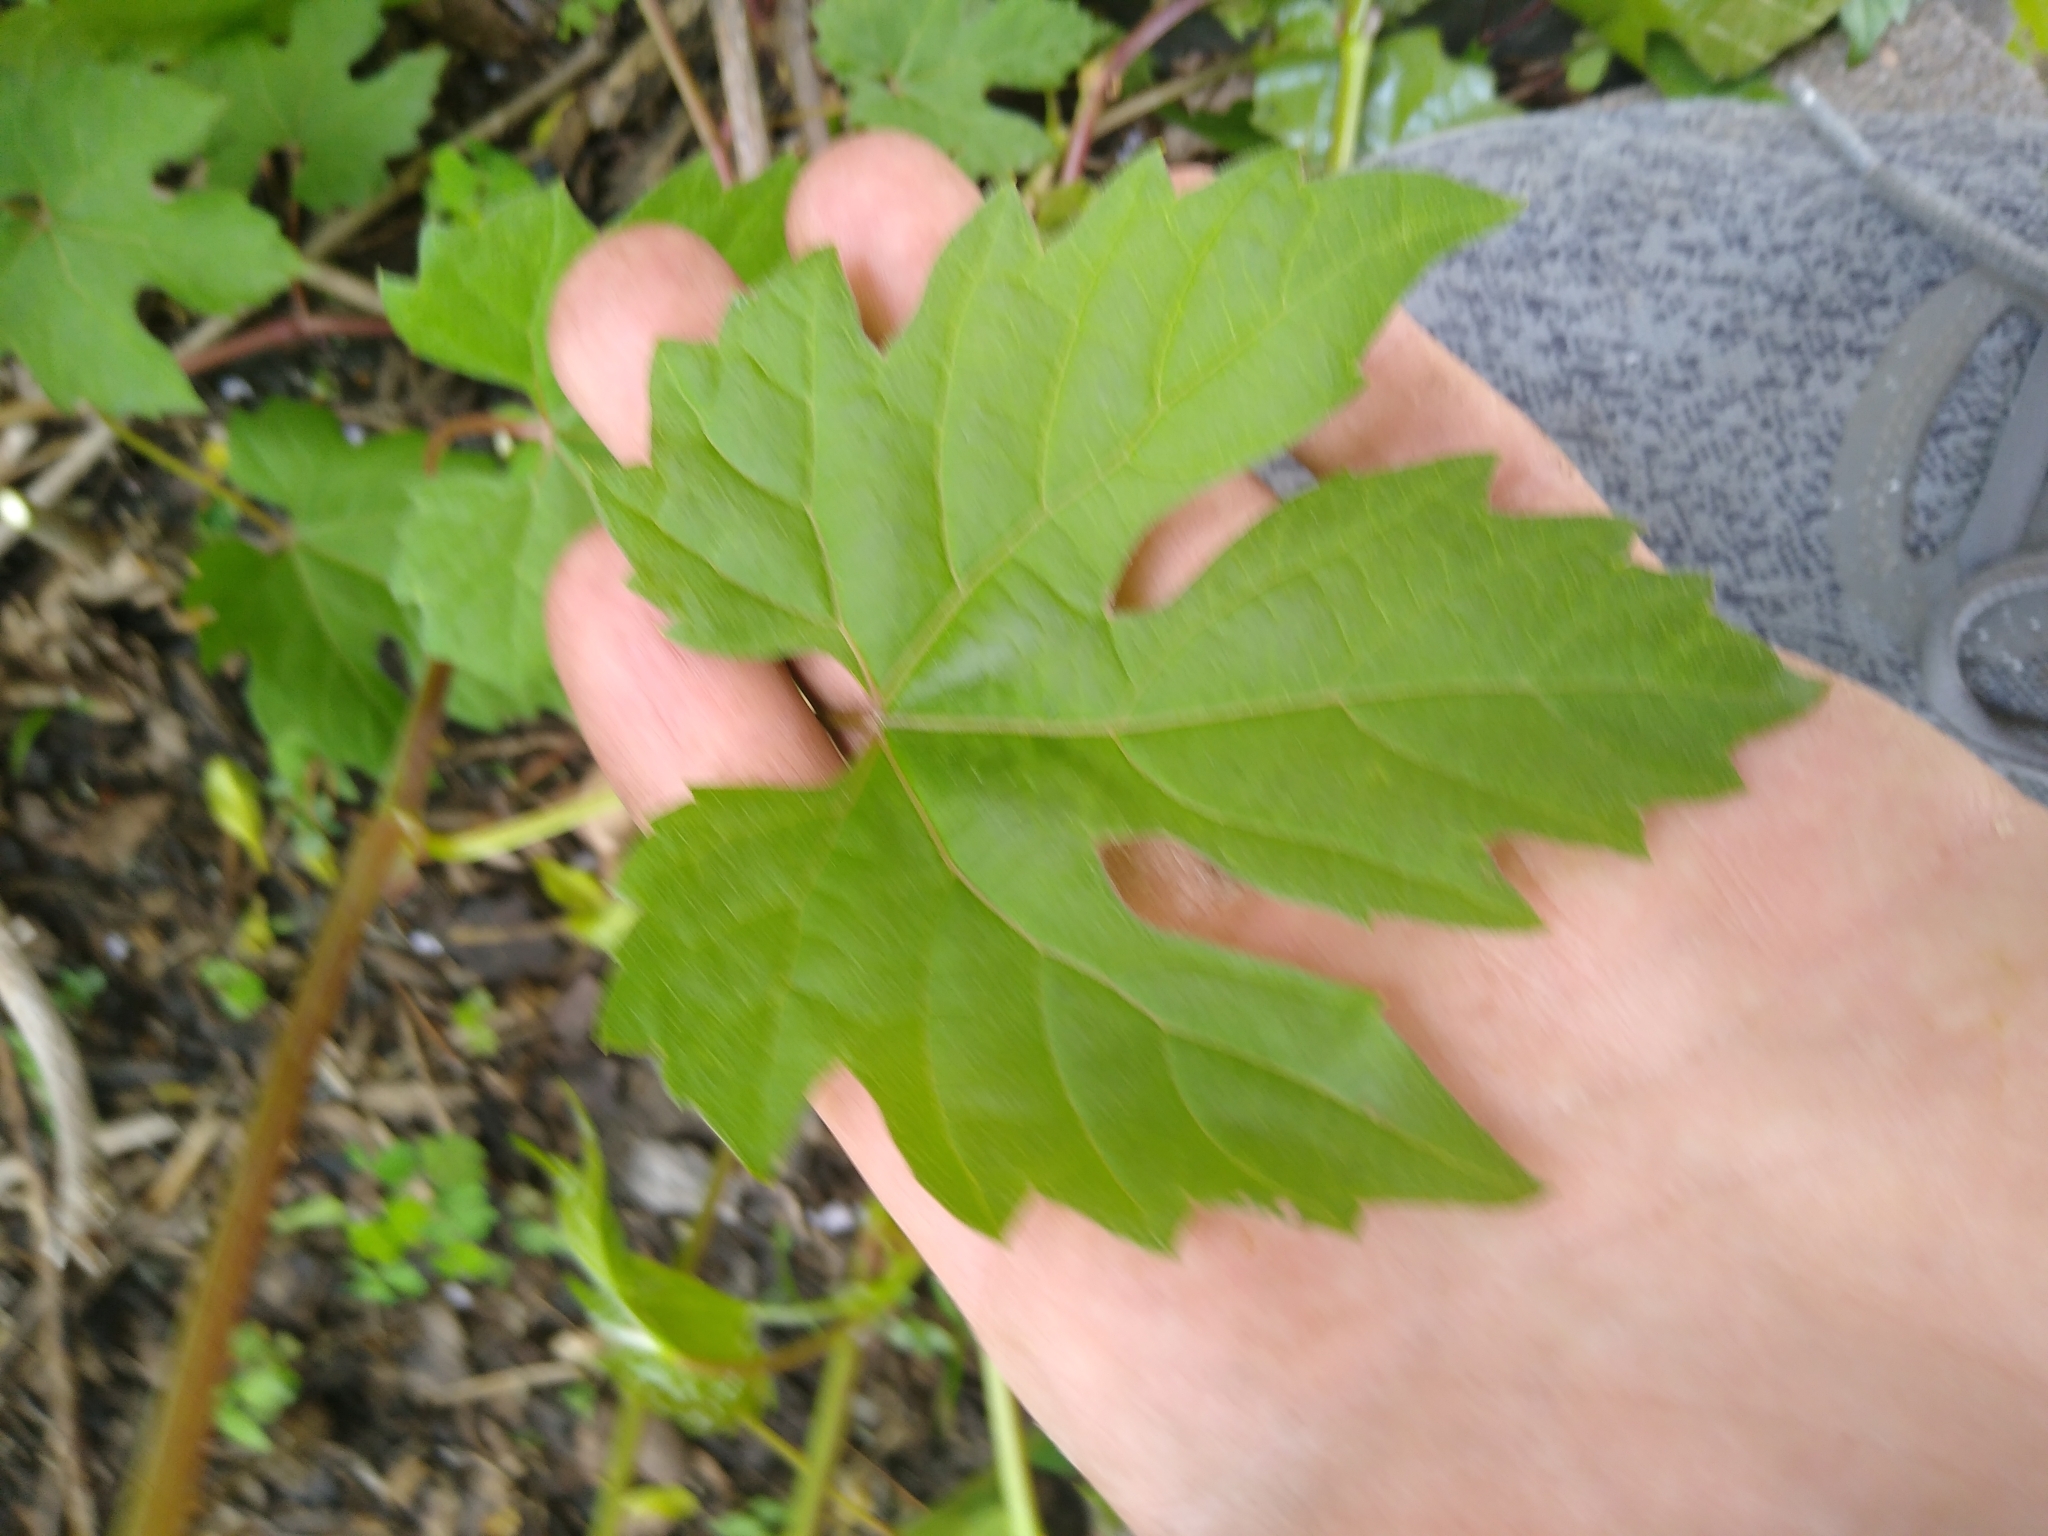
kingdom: Plantae
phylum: Tracheophyta
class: Magnoliopsida
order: Vitales
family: Vitaceae
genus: Vitis
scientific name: Vitis riparia
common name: Frost grape
